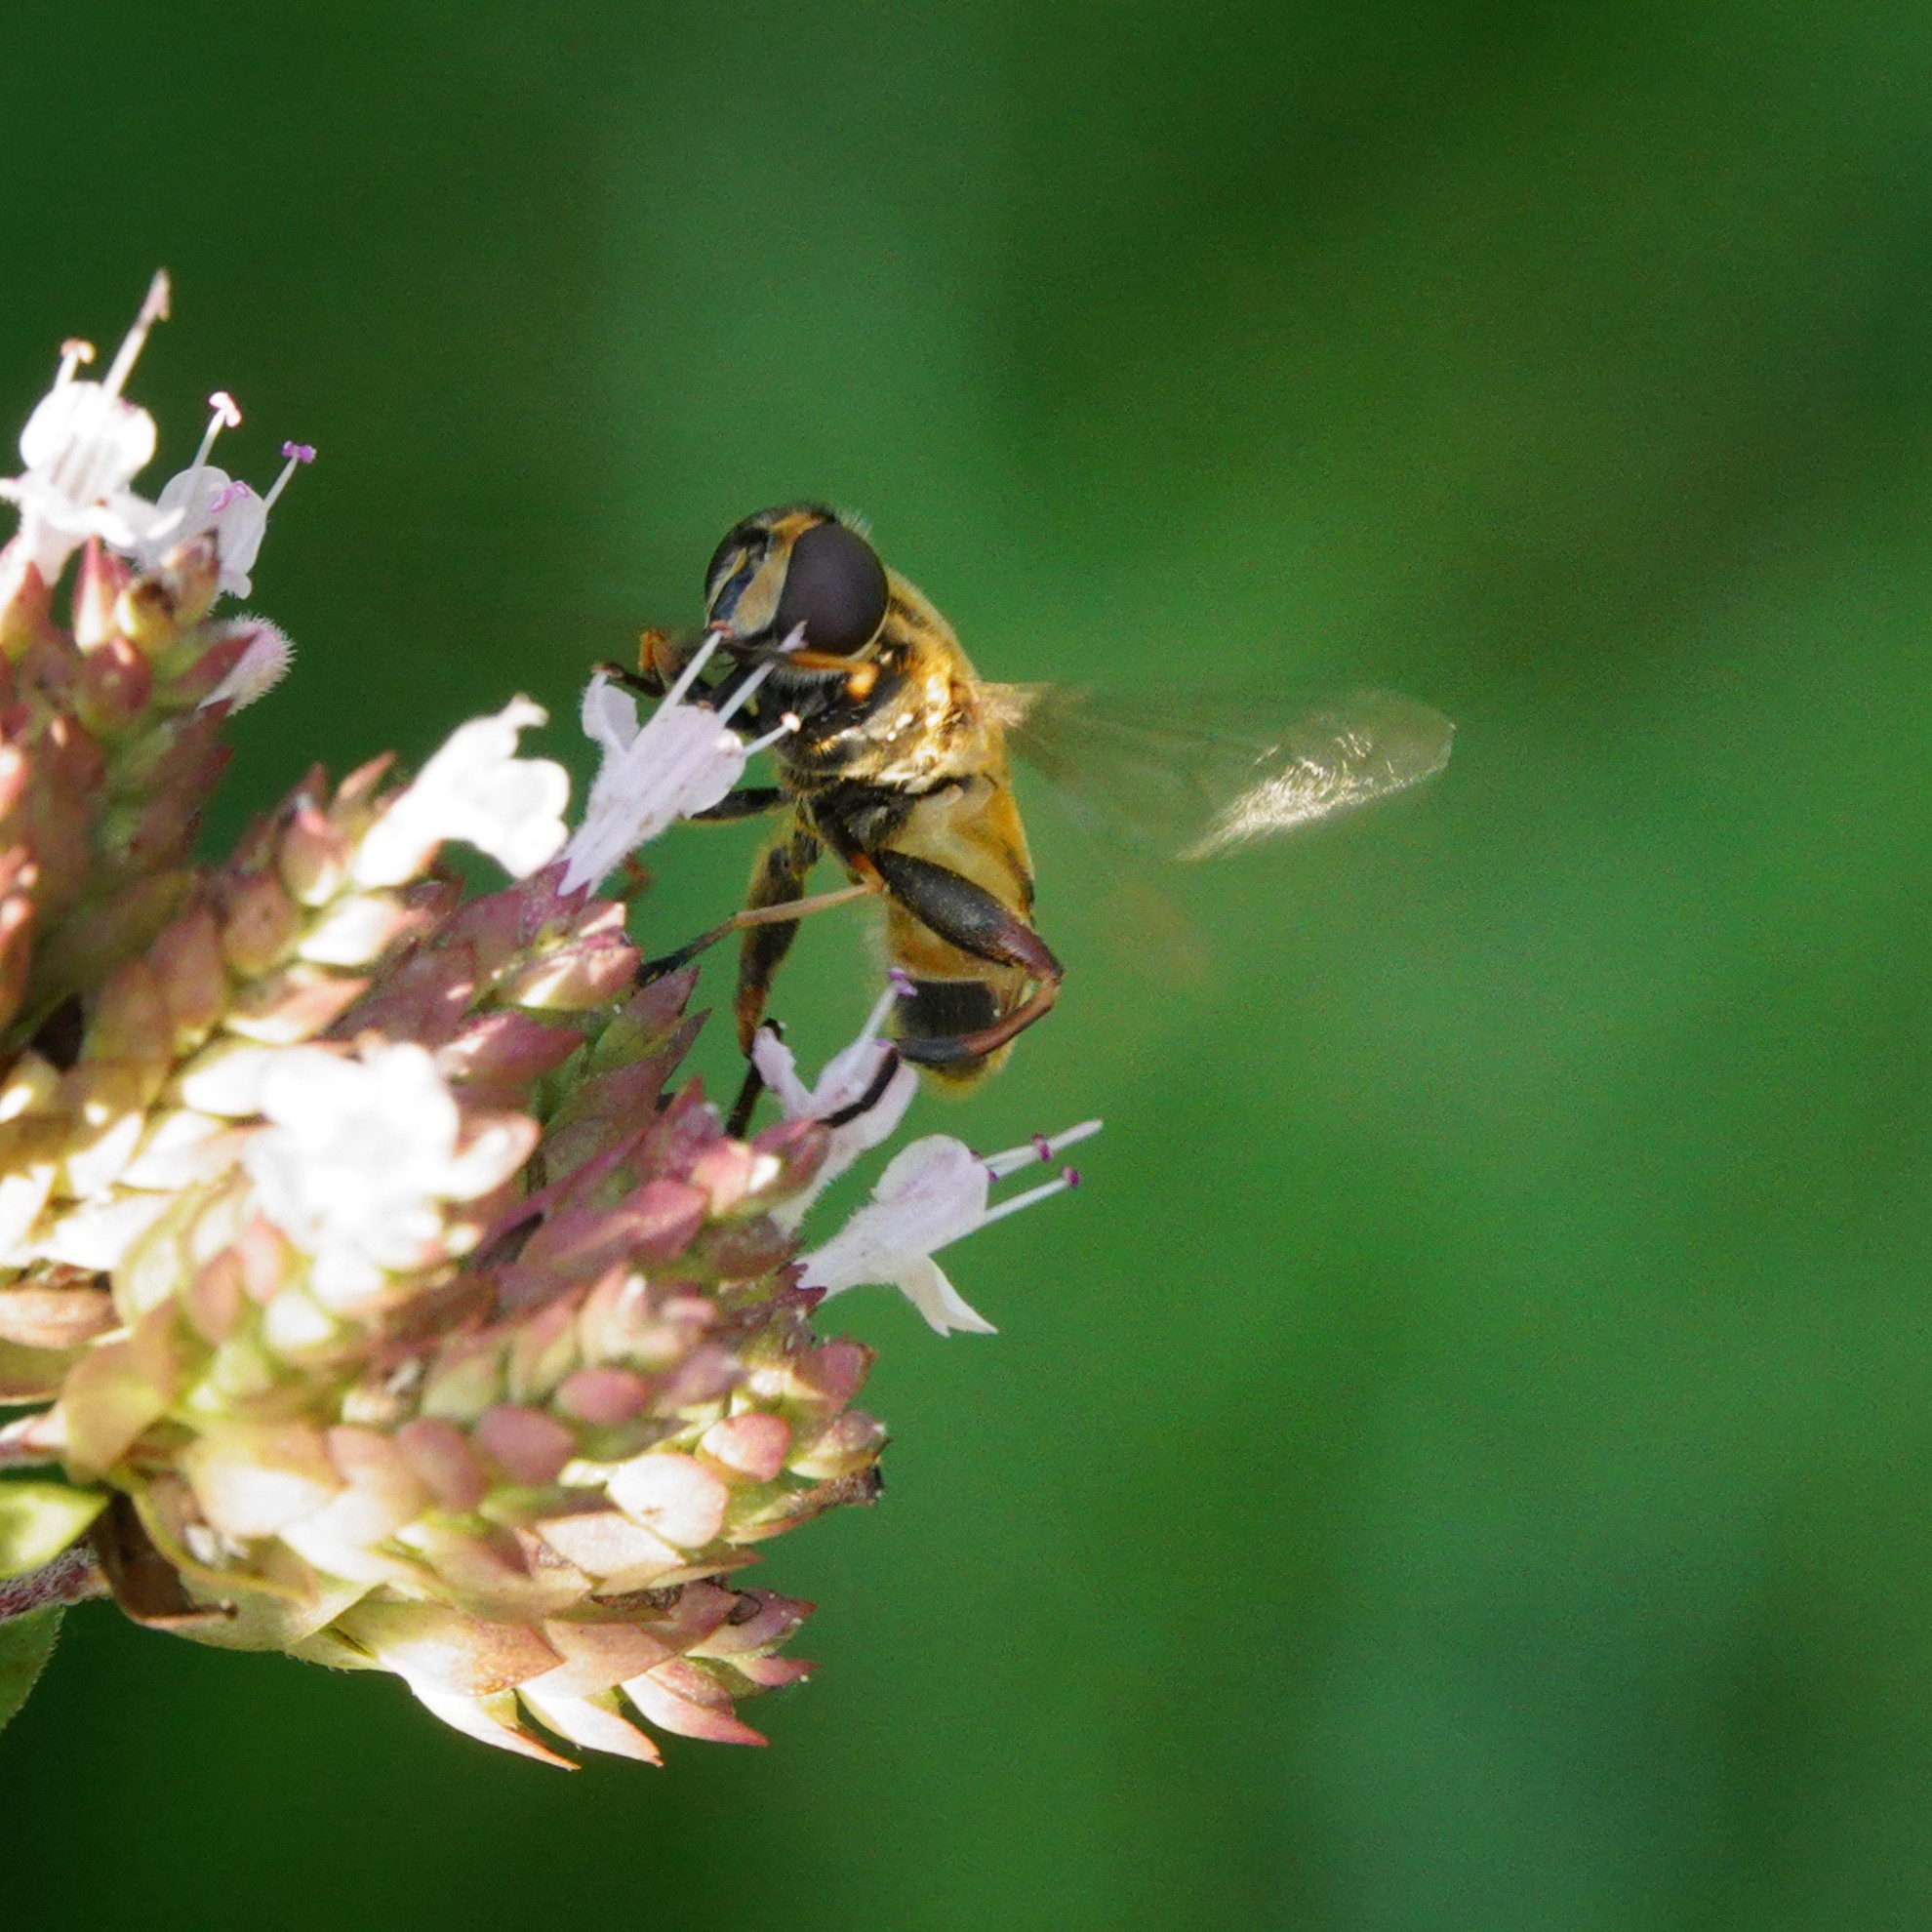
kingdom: Animalia
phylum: Arthropoda
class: Insecta
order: Diptera
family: Syrphidae
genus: Helophilus
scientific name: Helophilus pendulus
